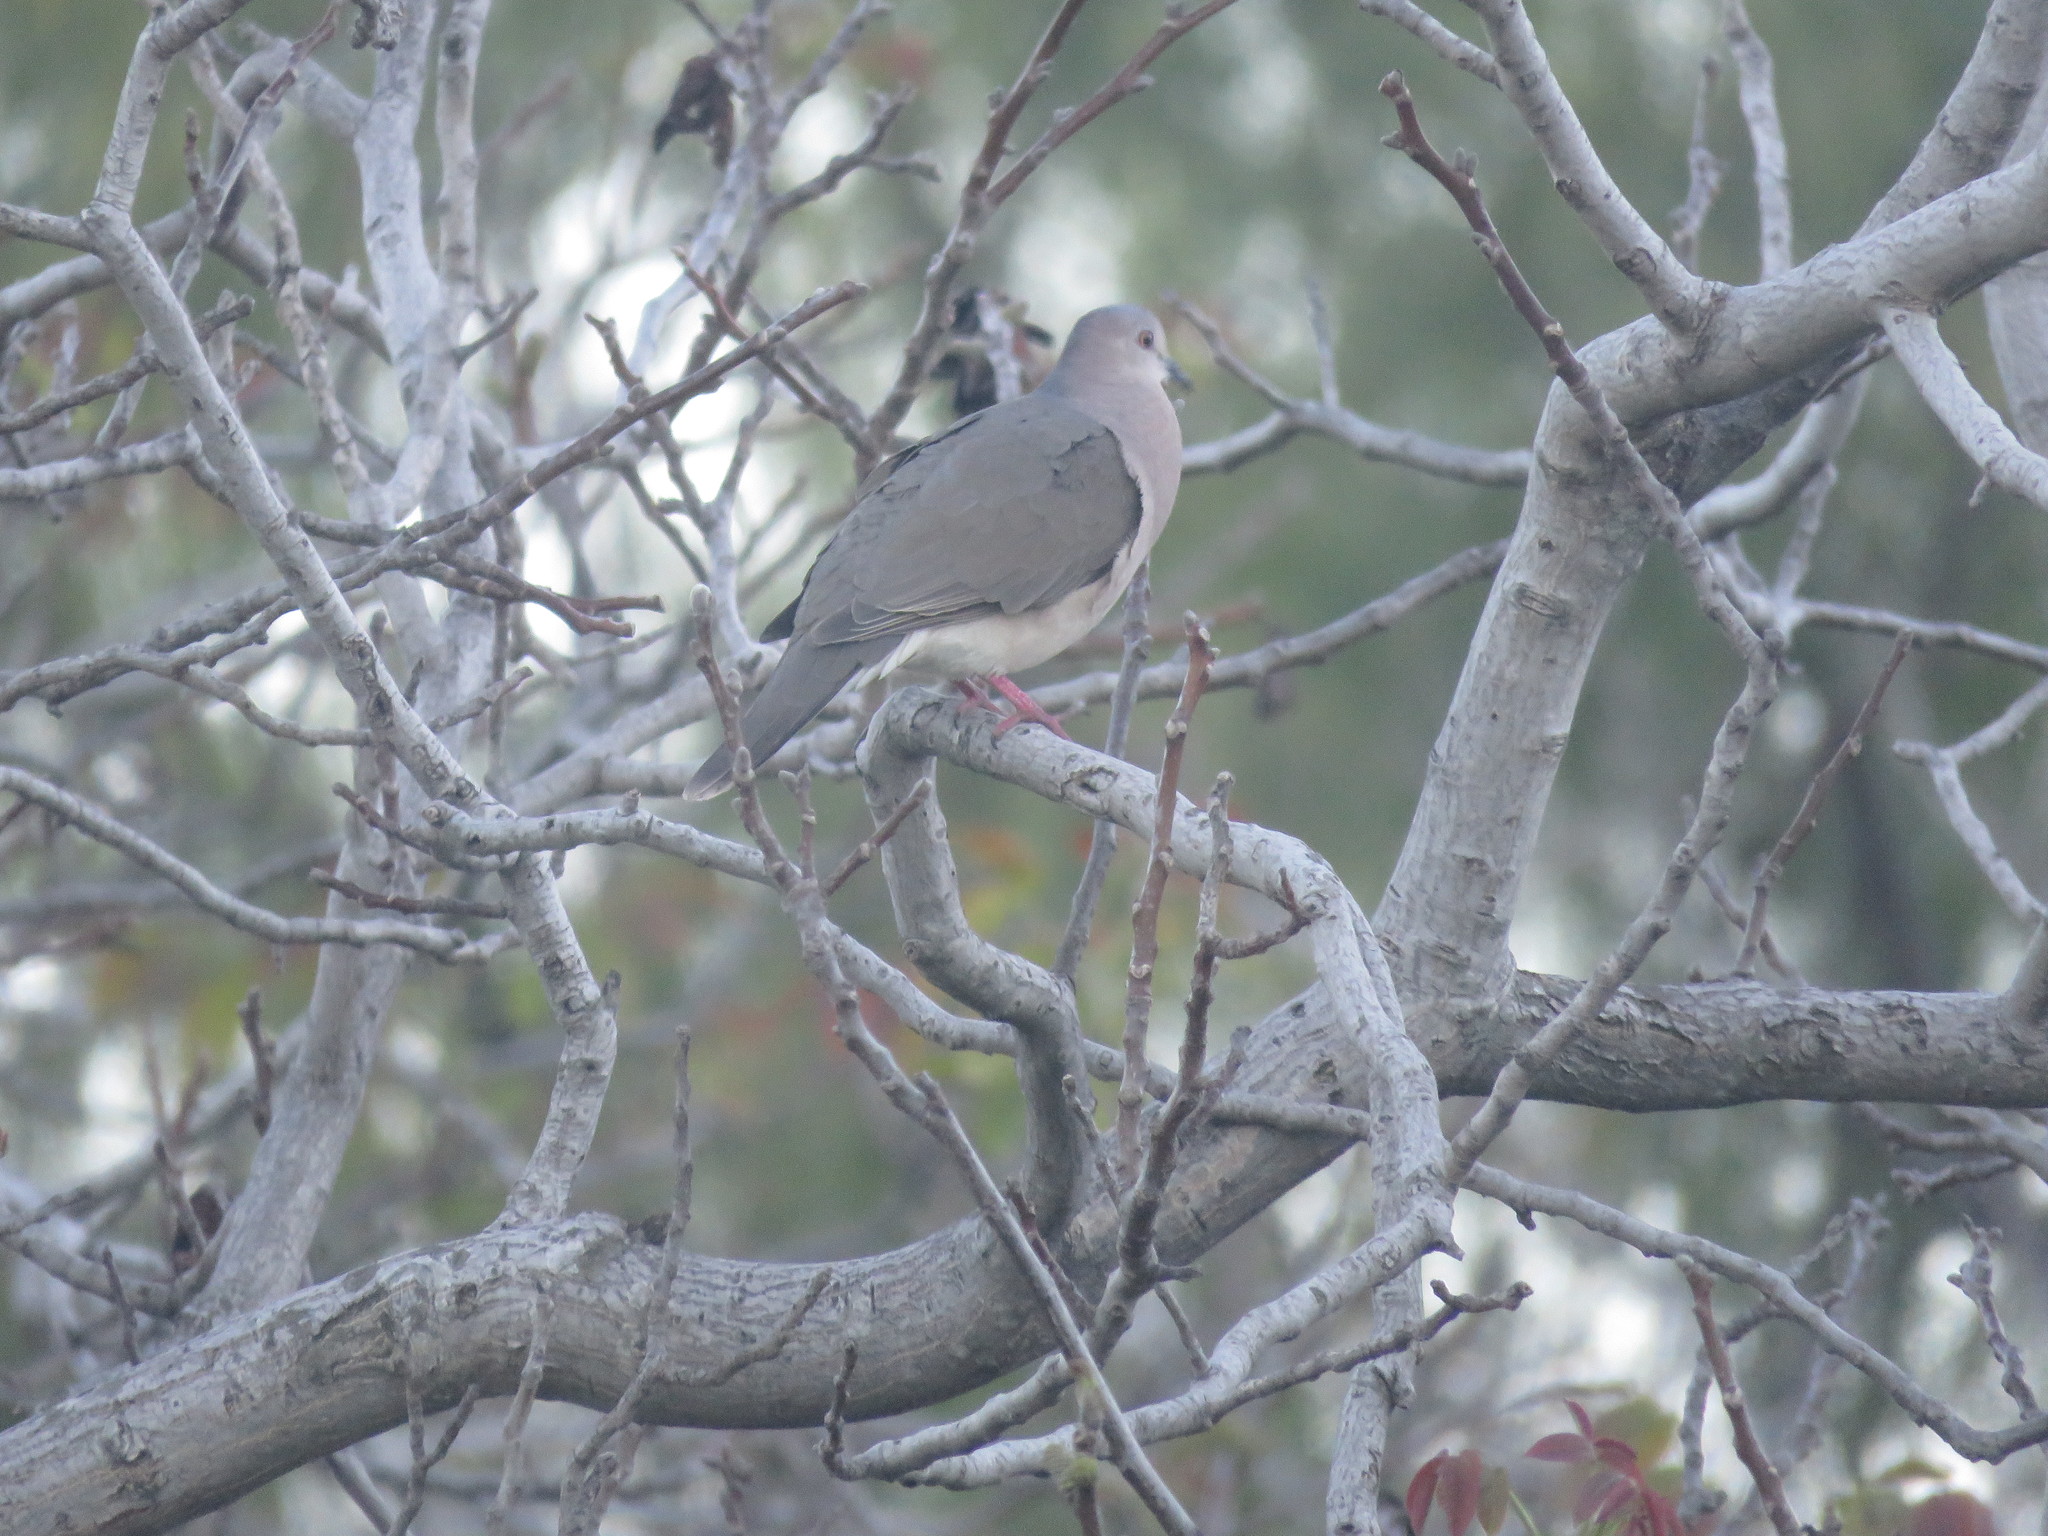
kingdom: Animalia
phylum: Chordata
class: Aves
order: Columbiformes
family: Columbidae
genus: Leptotila
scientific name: Leptotila verreauxi
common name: White-tipped dove
